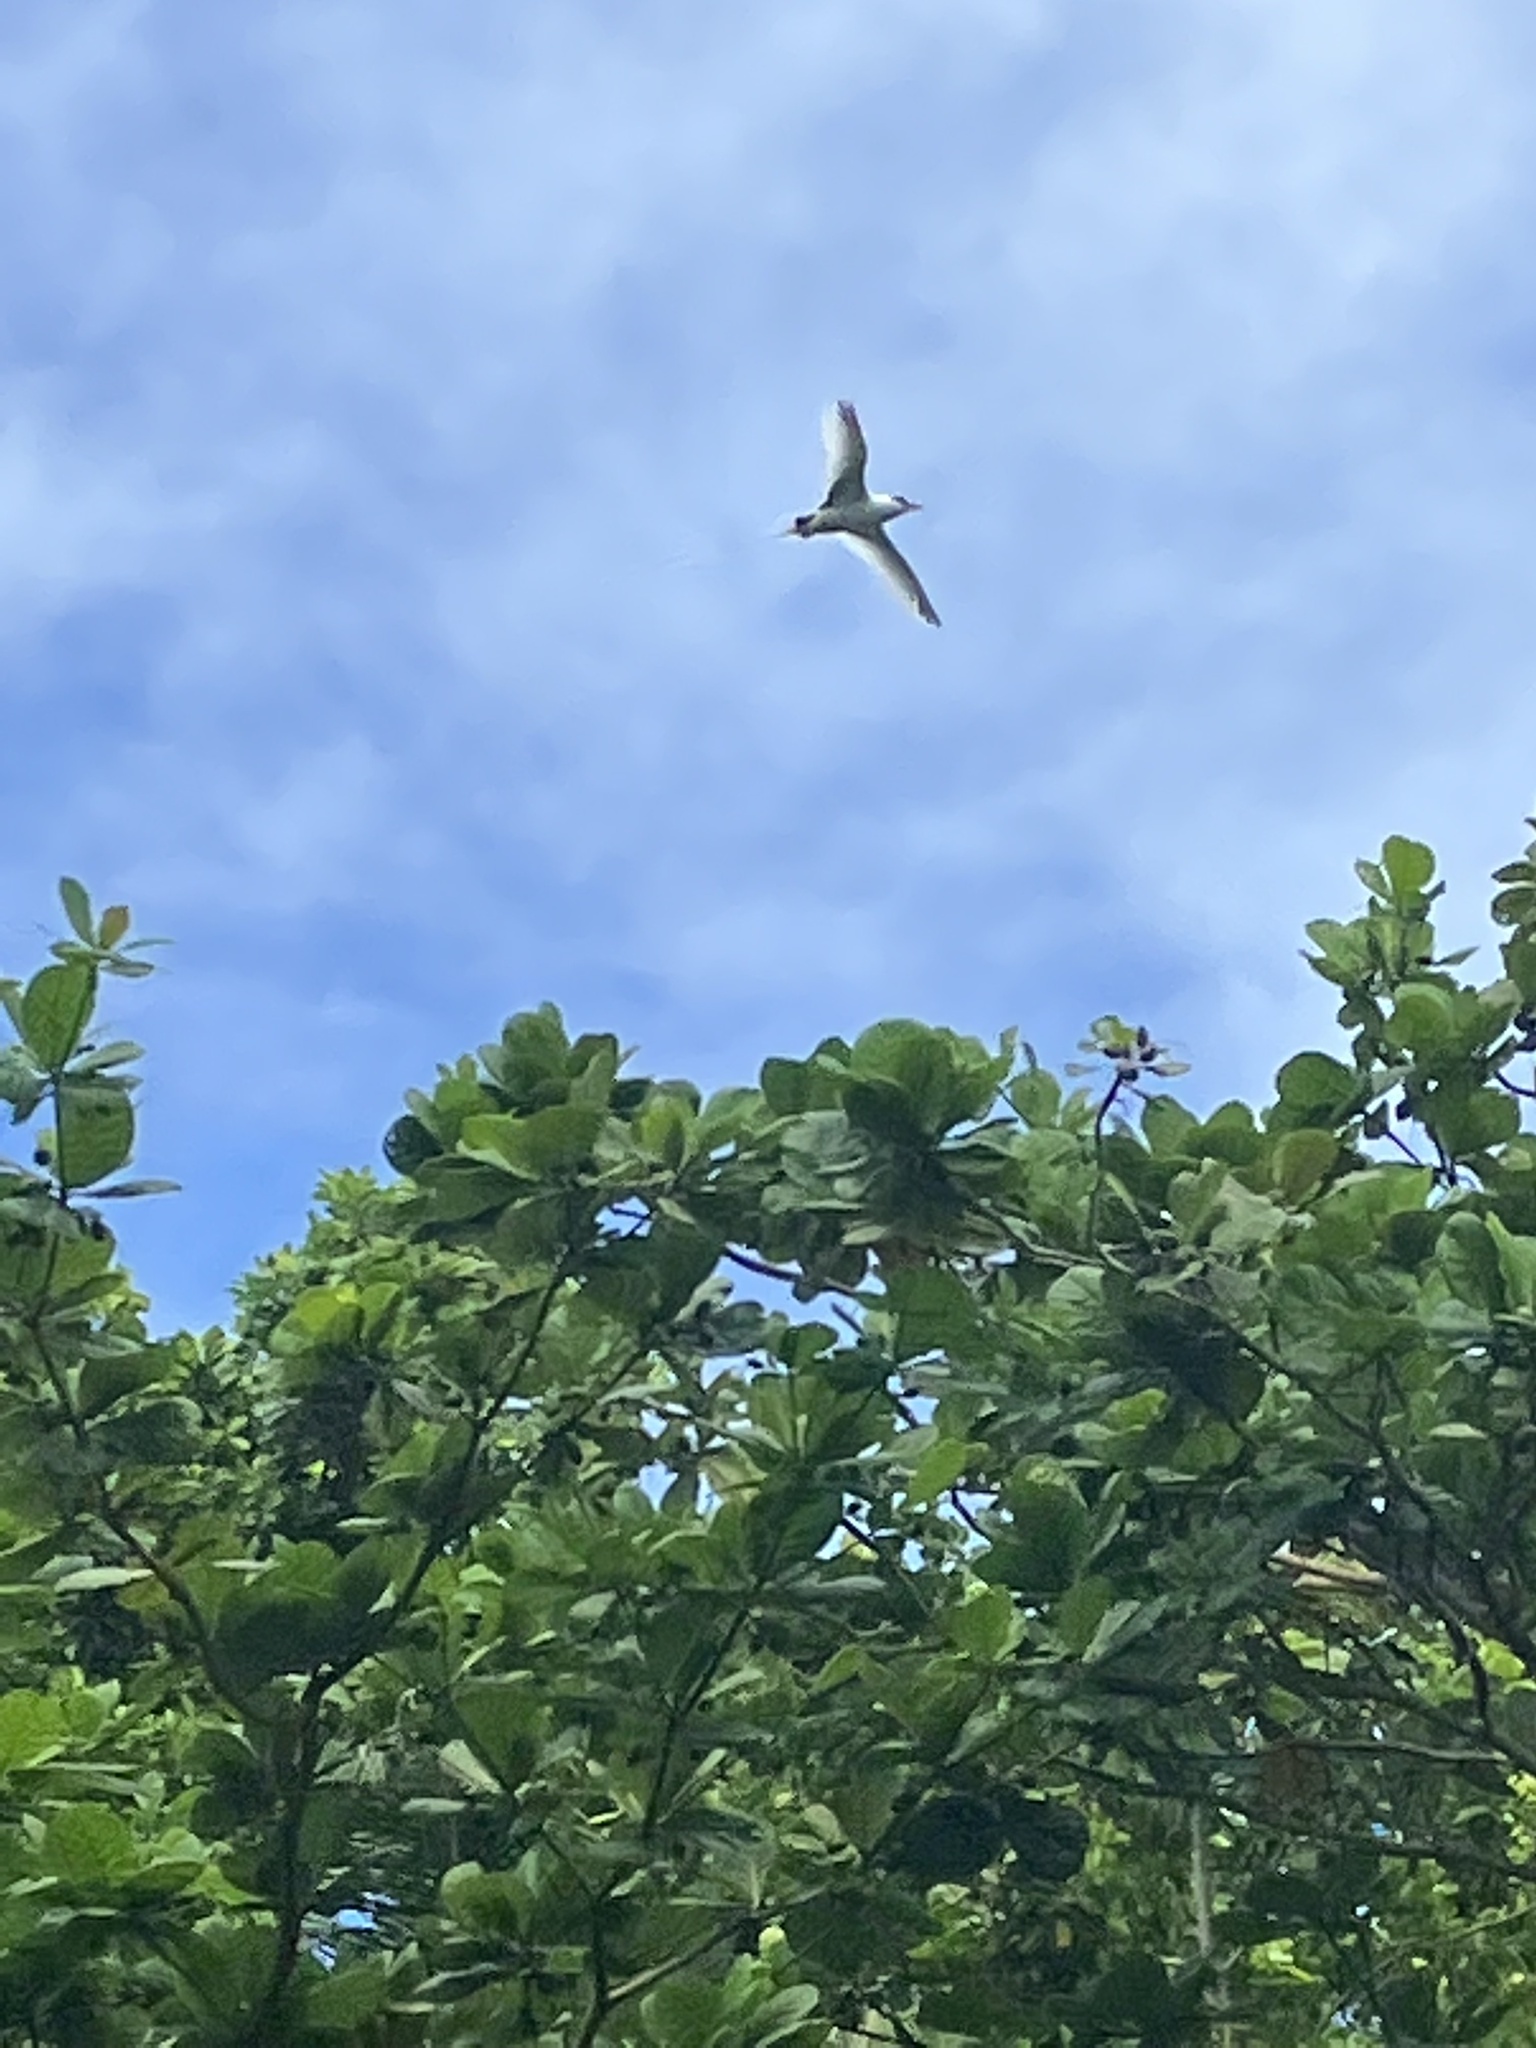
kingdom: Animalia
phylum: Chordata
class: Aves
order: Phaethontiformes
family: Phaethontidae
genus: Phaethon
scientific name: Phaethon lepturus
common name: White-tailed tropicbird
